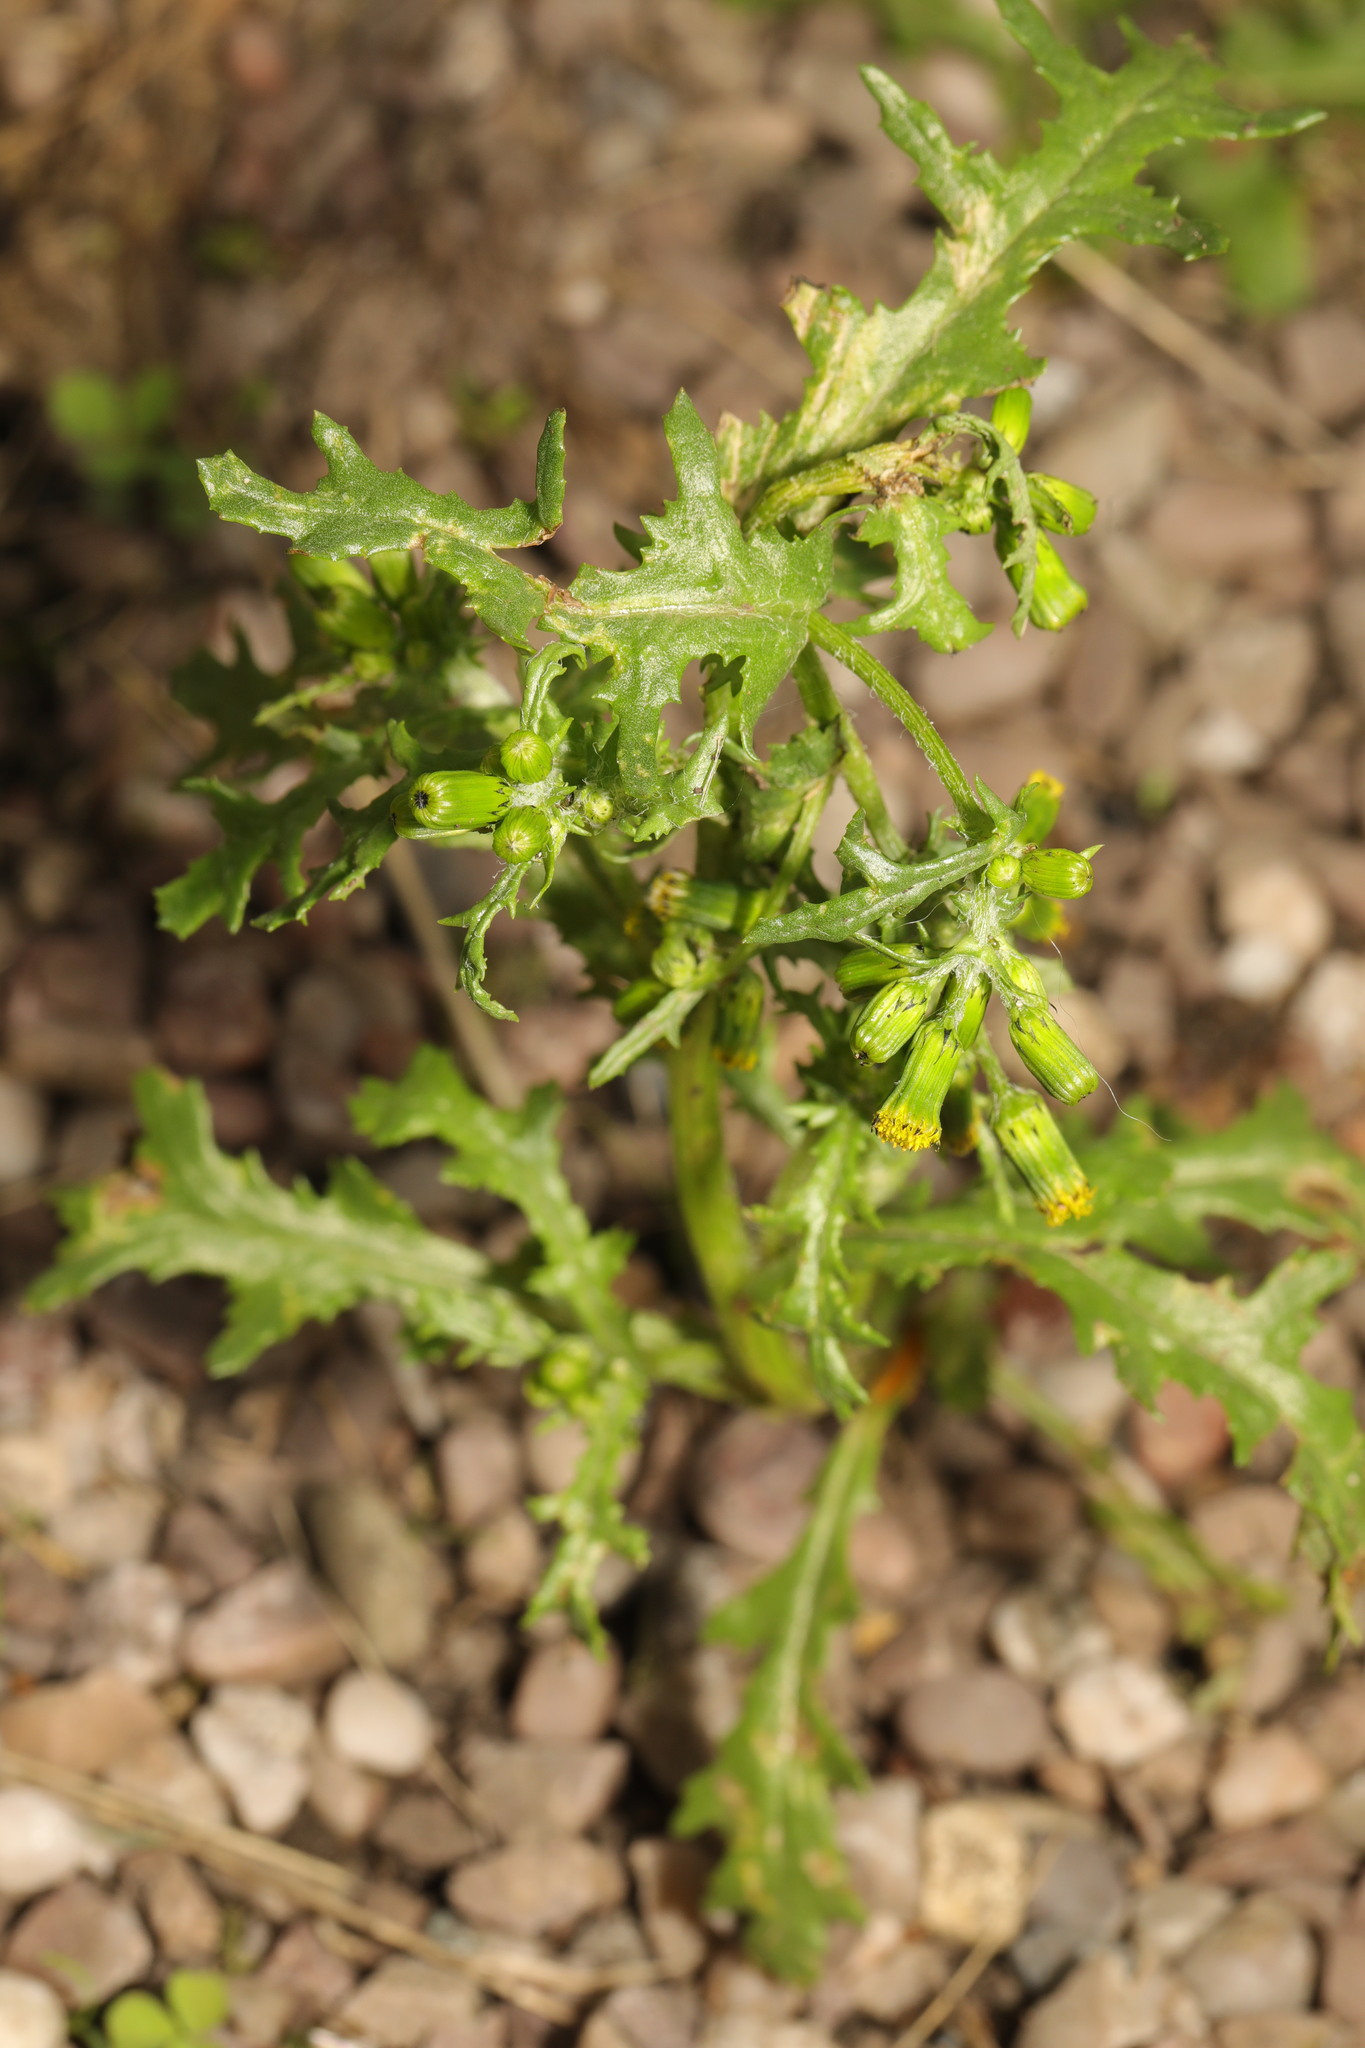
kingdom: Plantae
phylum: Tracheophyta
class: Magnoliopsida
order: Asterales
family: Asteraceae
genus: Senecio
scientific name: Senecio vulgaris
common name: Old-man-in-the-spring
